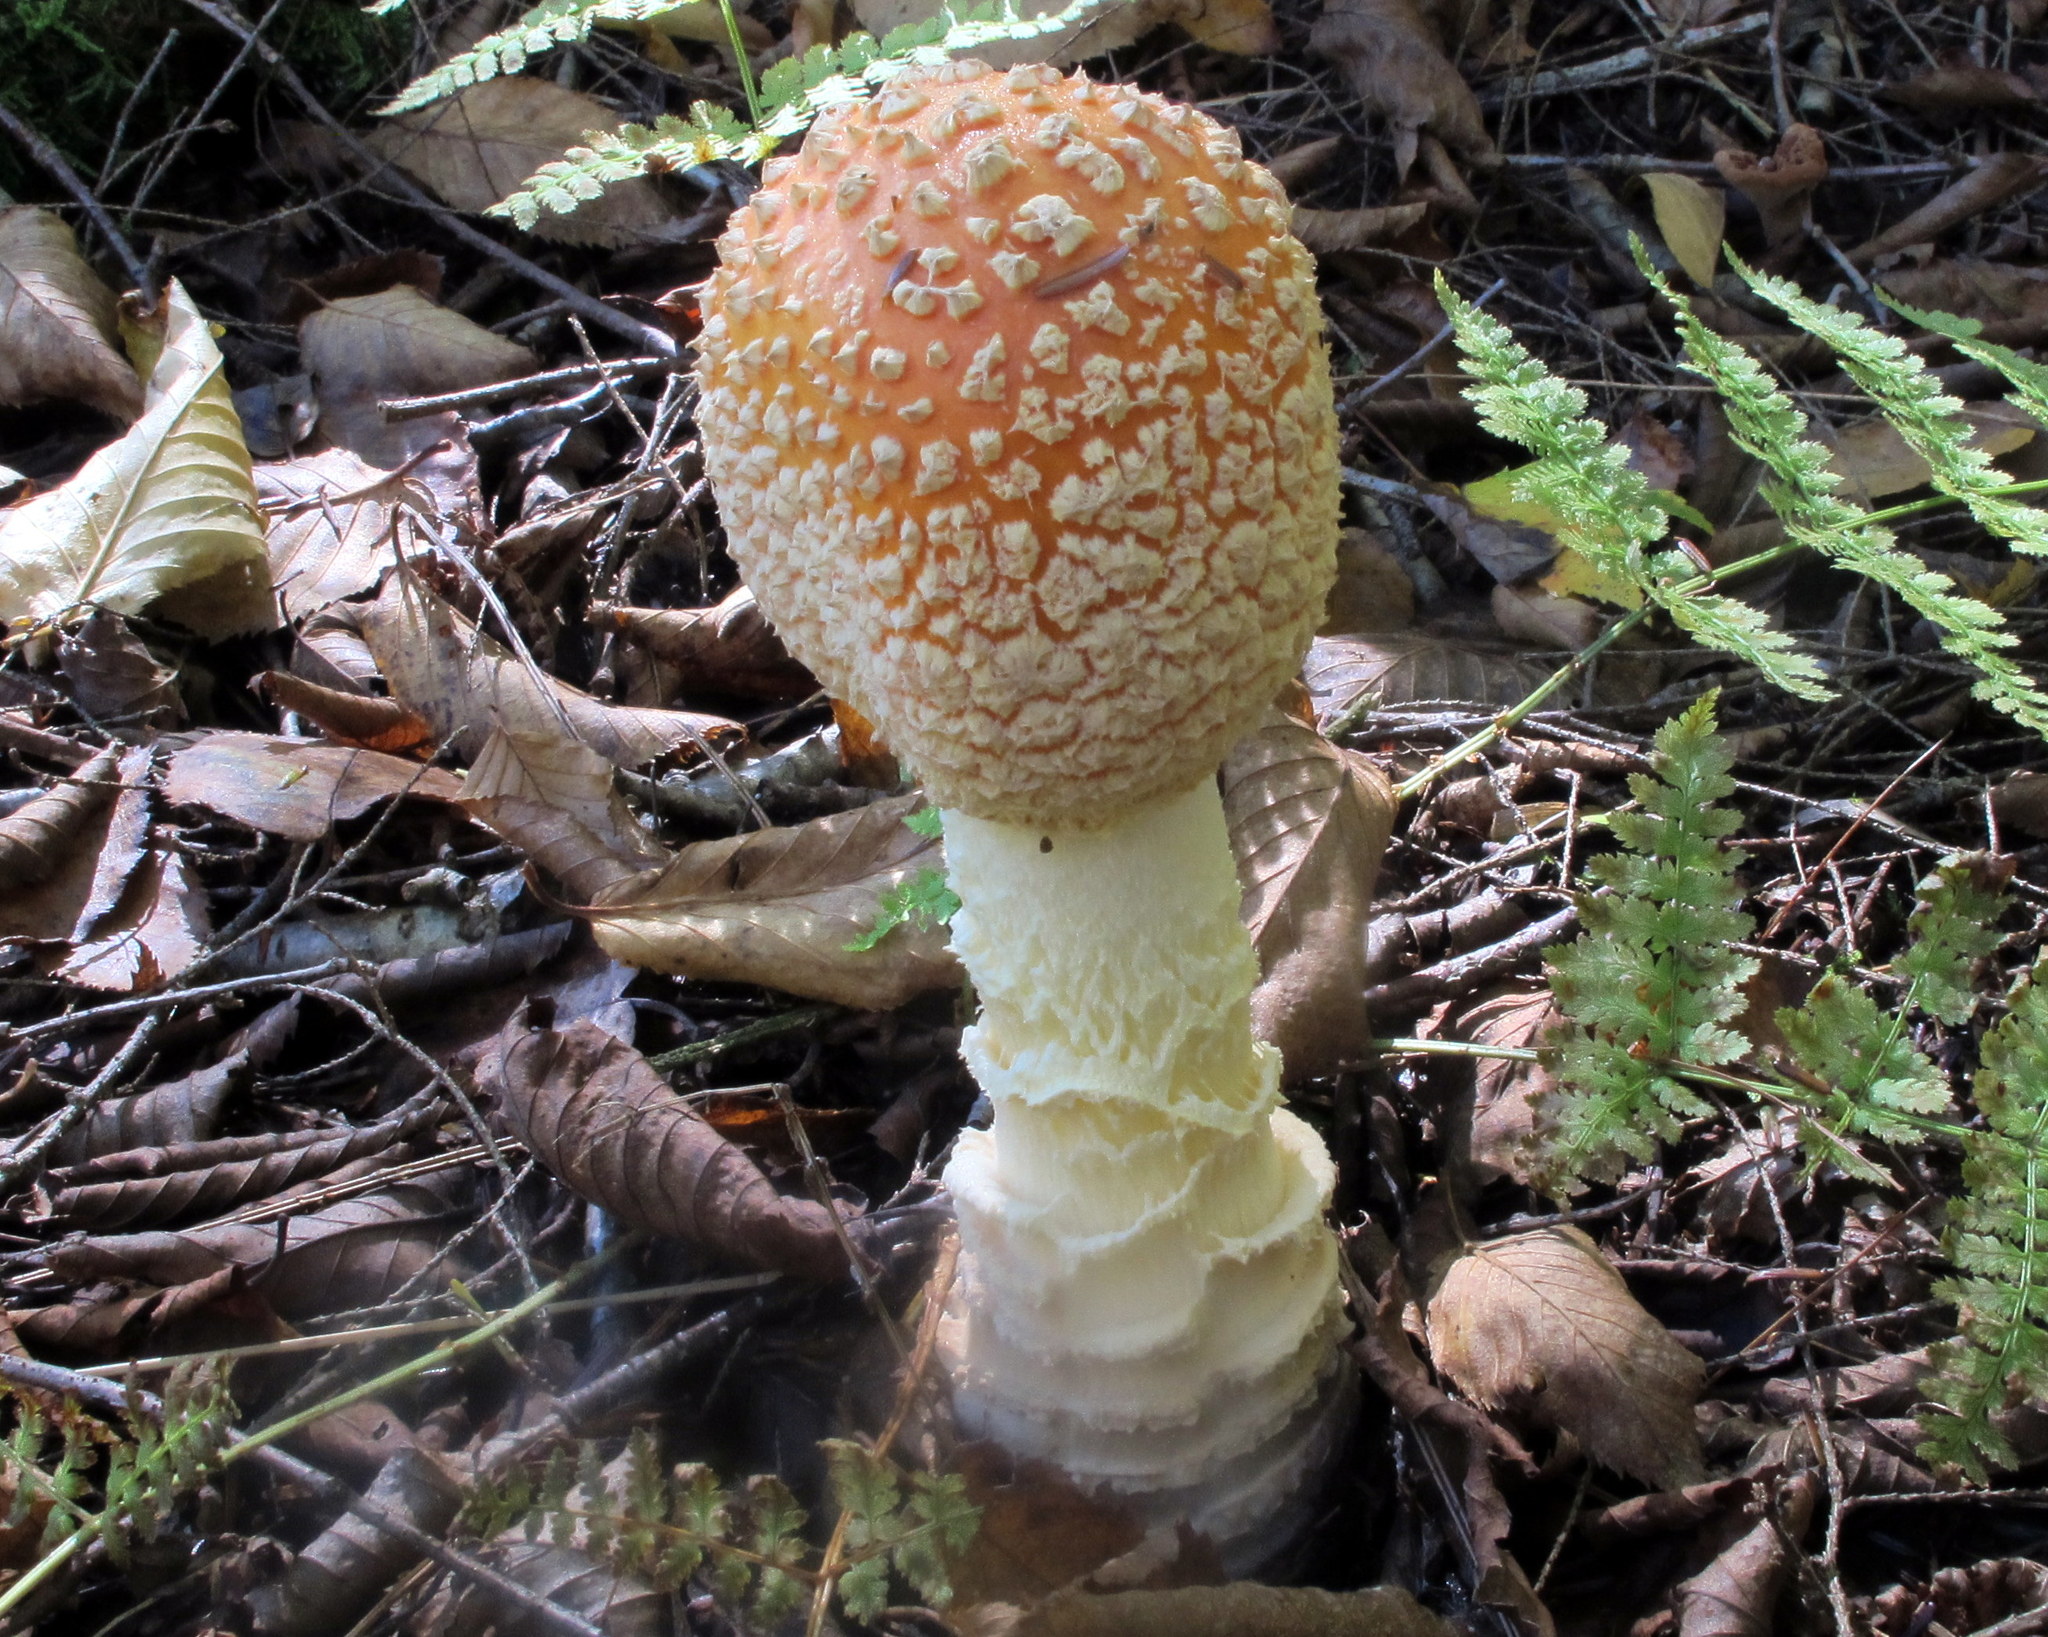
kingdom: Fungi
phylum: Basidiomycota
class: Agaricomycetes
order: Agaricales
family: Amanitaceae
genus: Amanita
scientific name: Amanita muscaria
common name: Fly agaric
